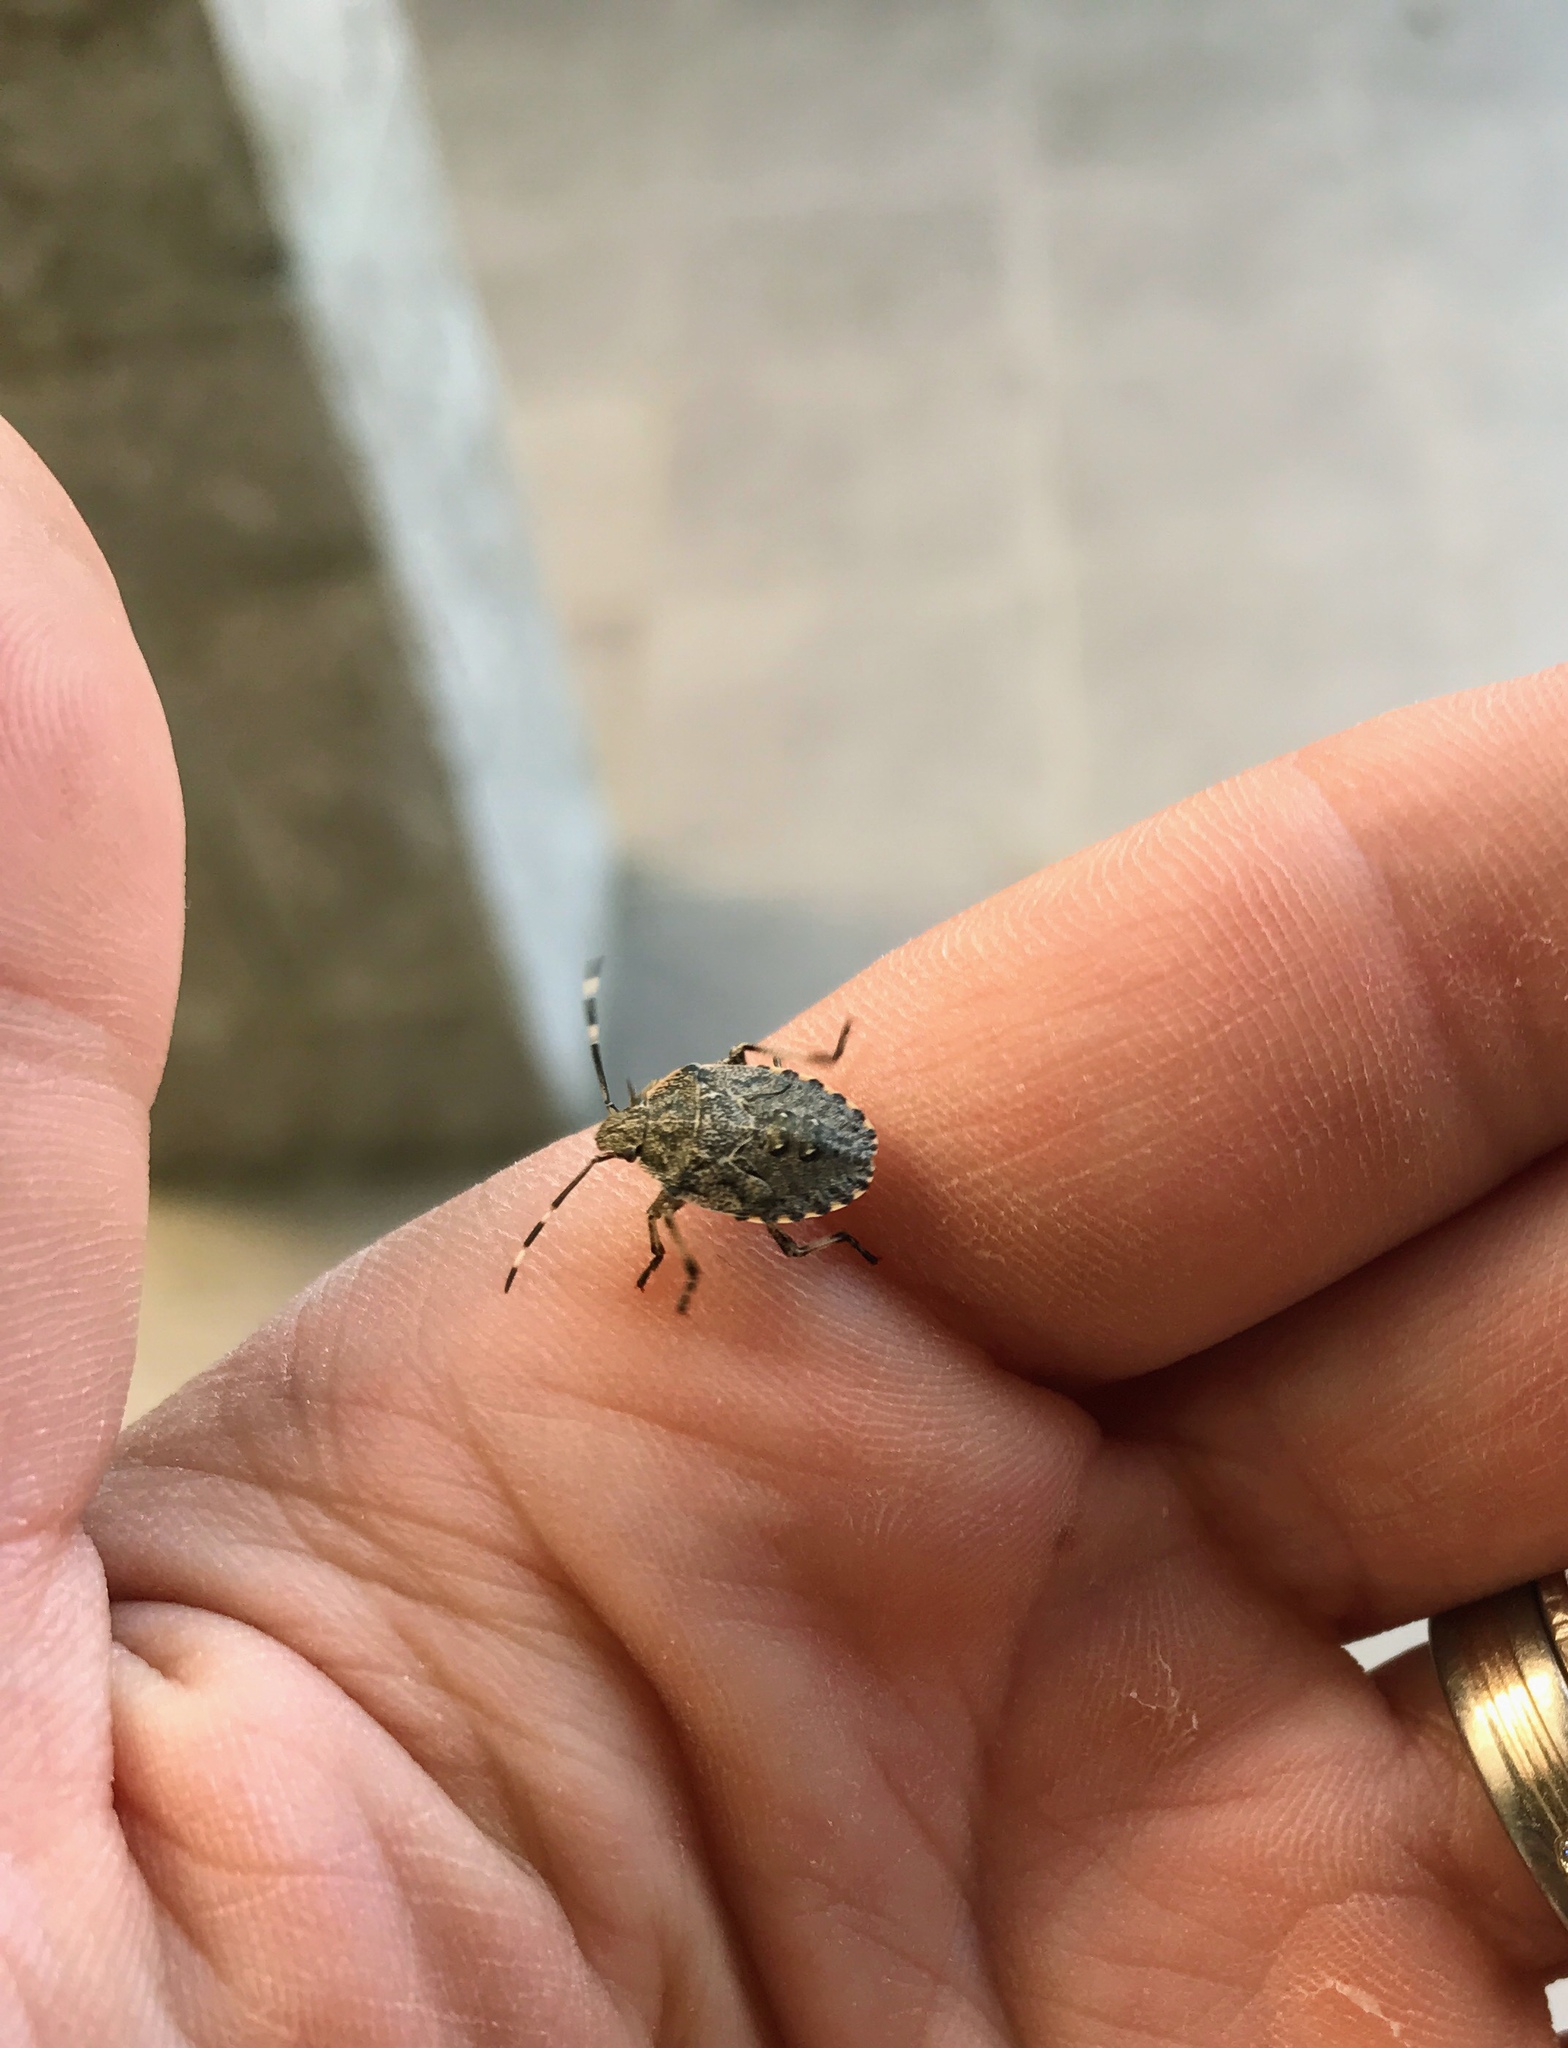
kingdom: Animalia
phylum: Arthropoda
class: Insecta
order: Hemiptera
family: Pentatomidae
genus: Rhaphigaster
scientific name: Rhaphigaster nebulosa
